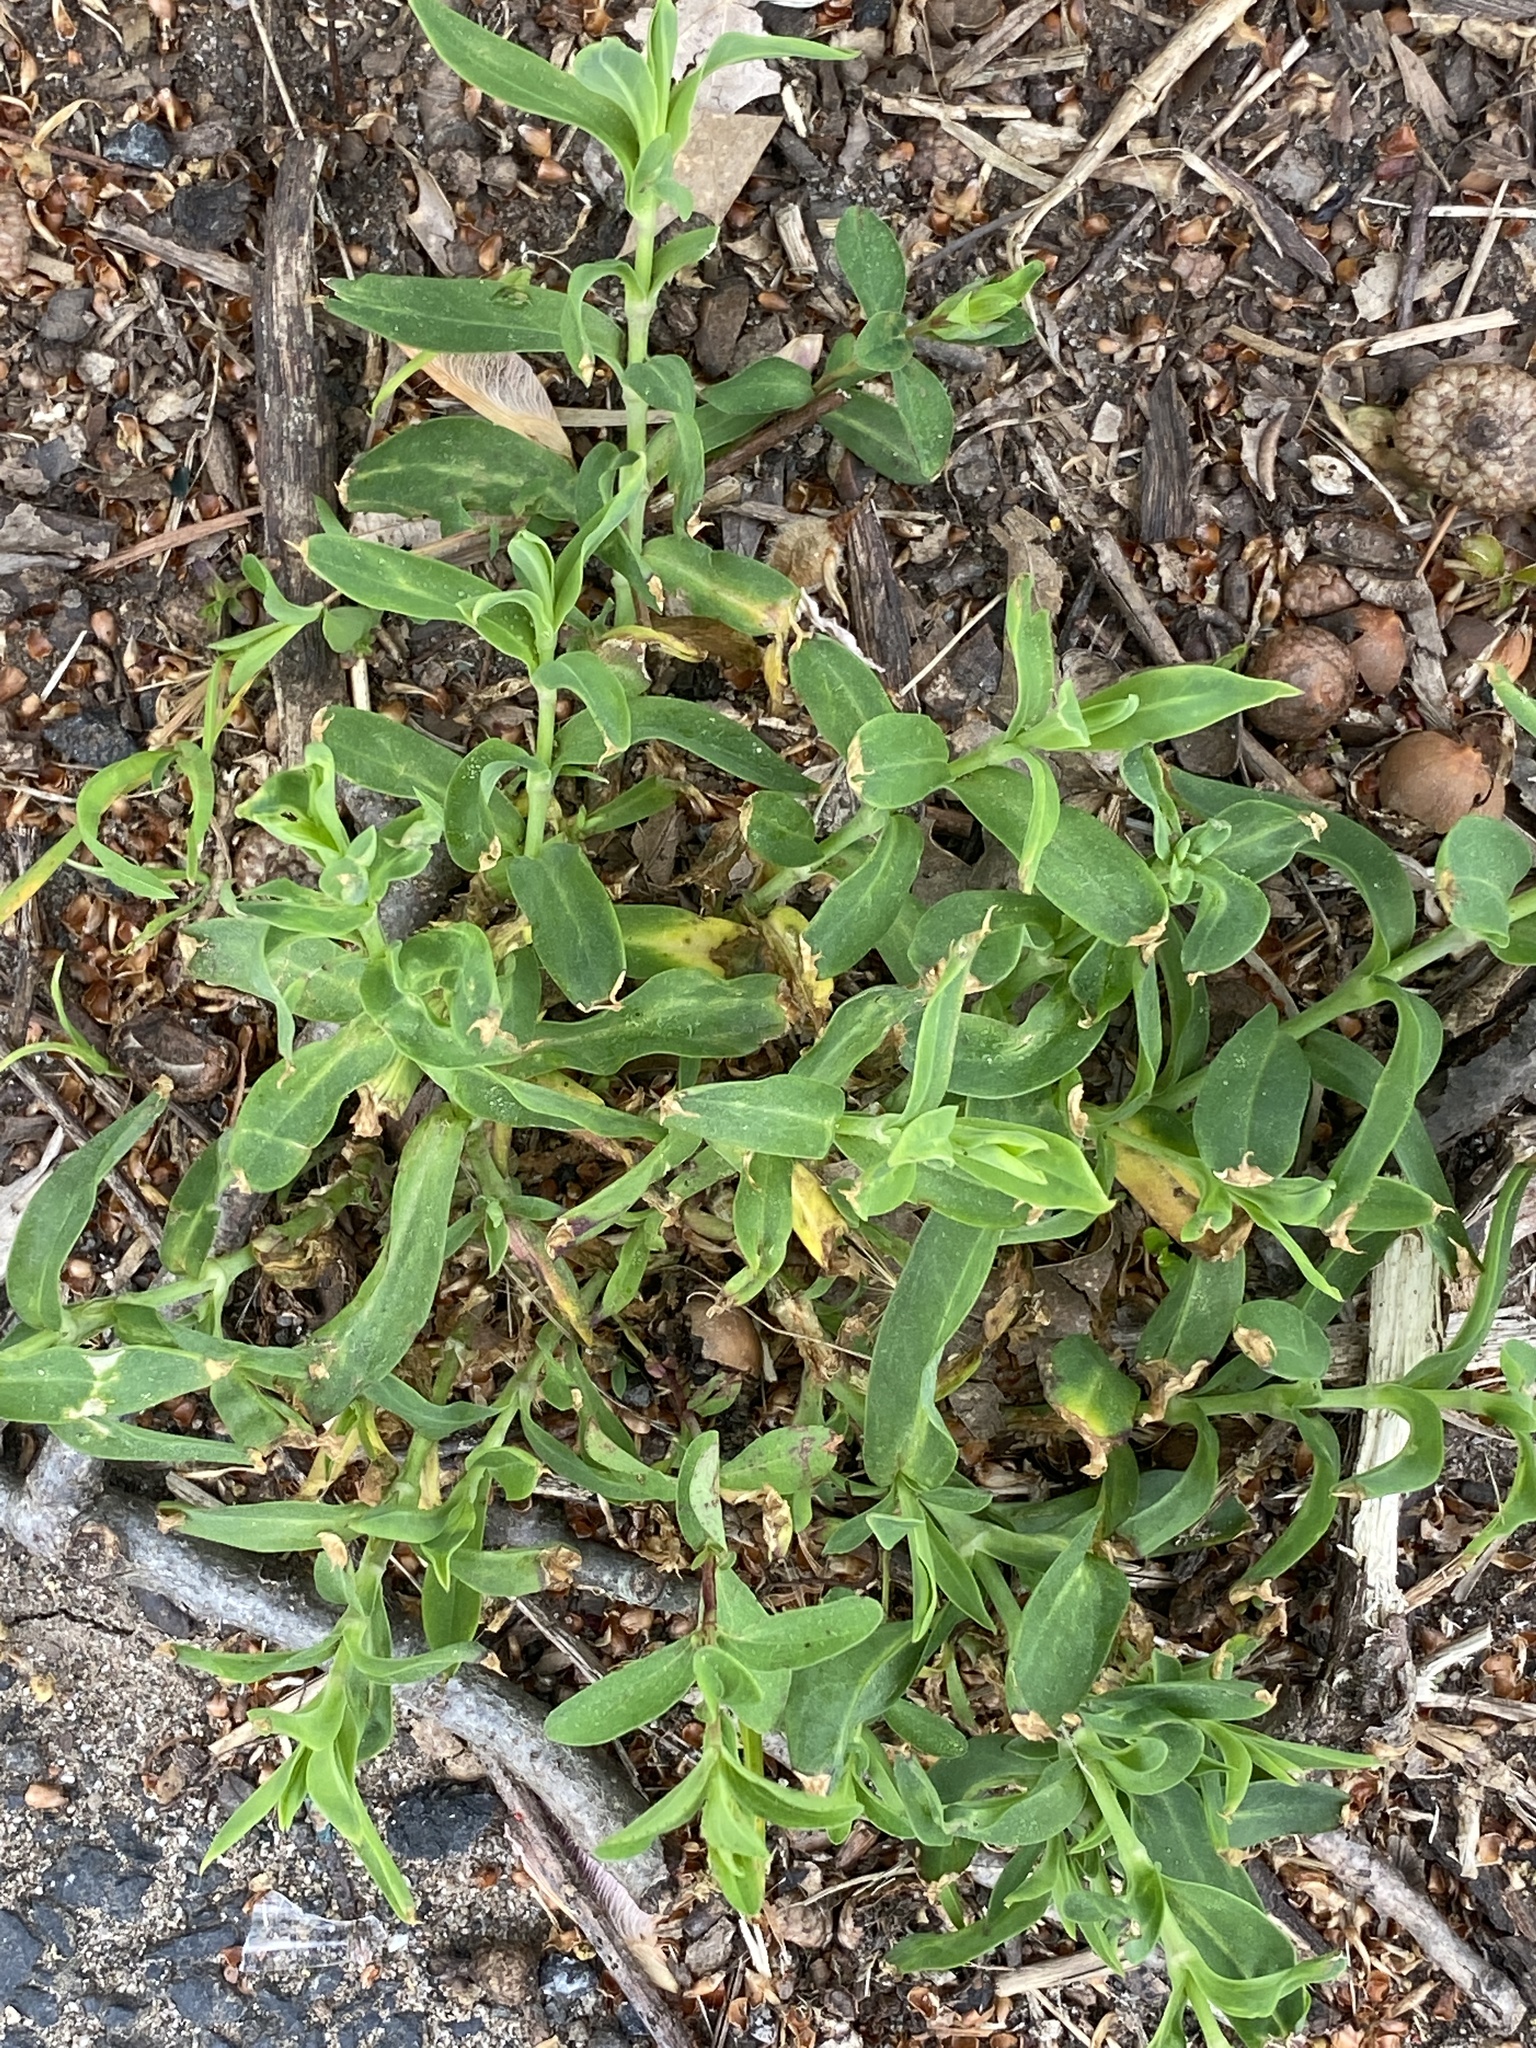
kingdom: Plantae
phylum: Tracheophyta
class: Magnoliopsida
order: Caryophyllales
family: Caryophyllaceae
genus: Silene
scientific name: Silene vulgaris
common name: Bladder campion
